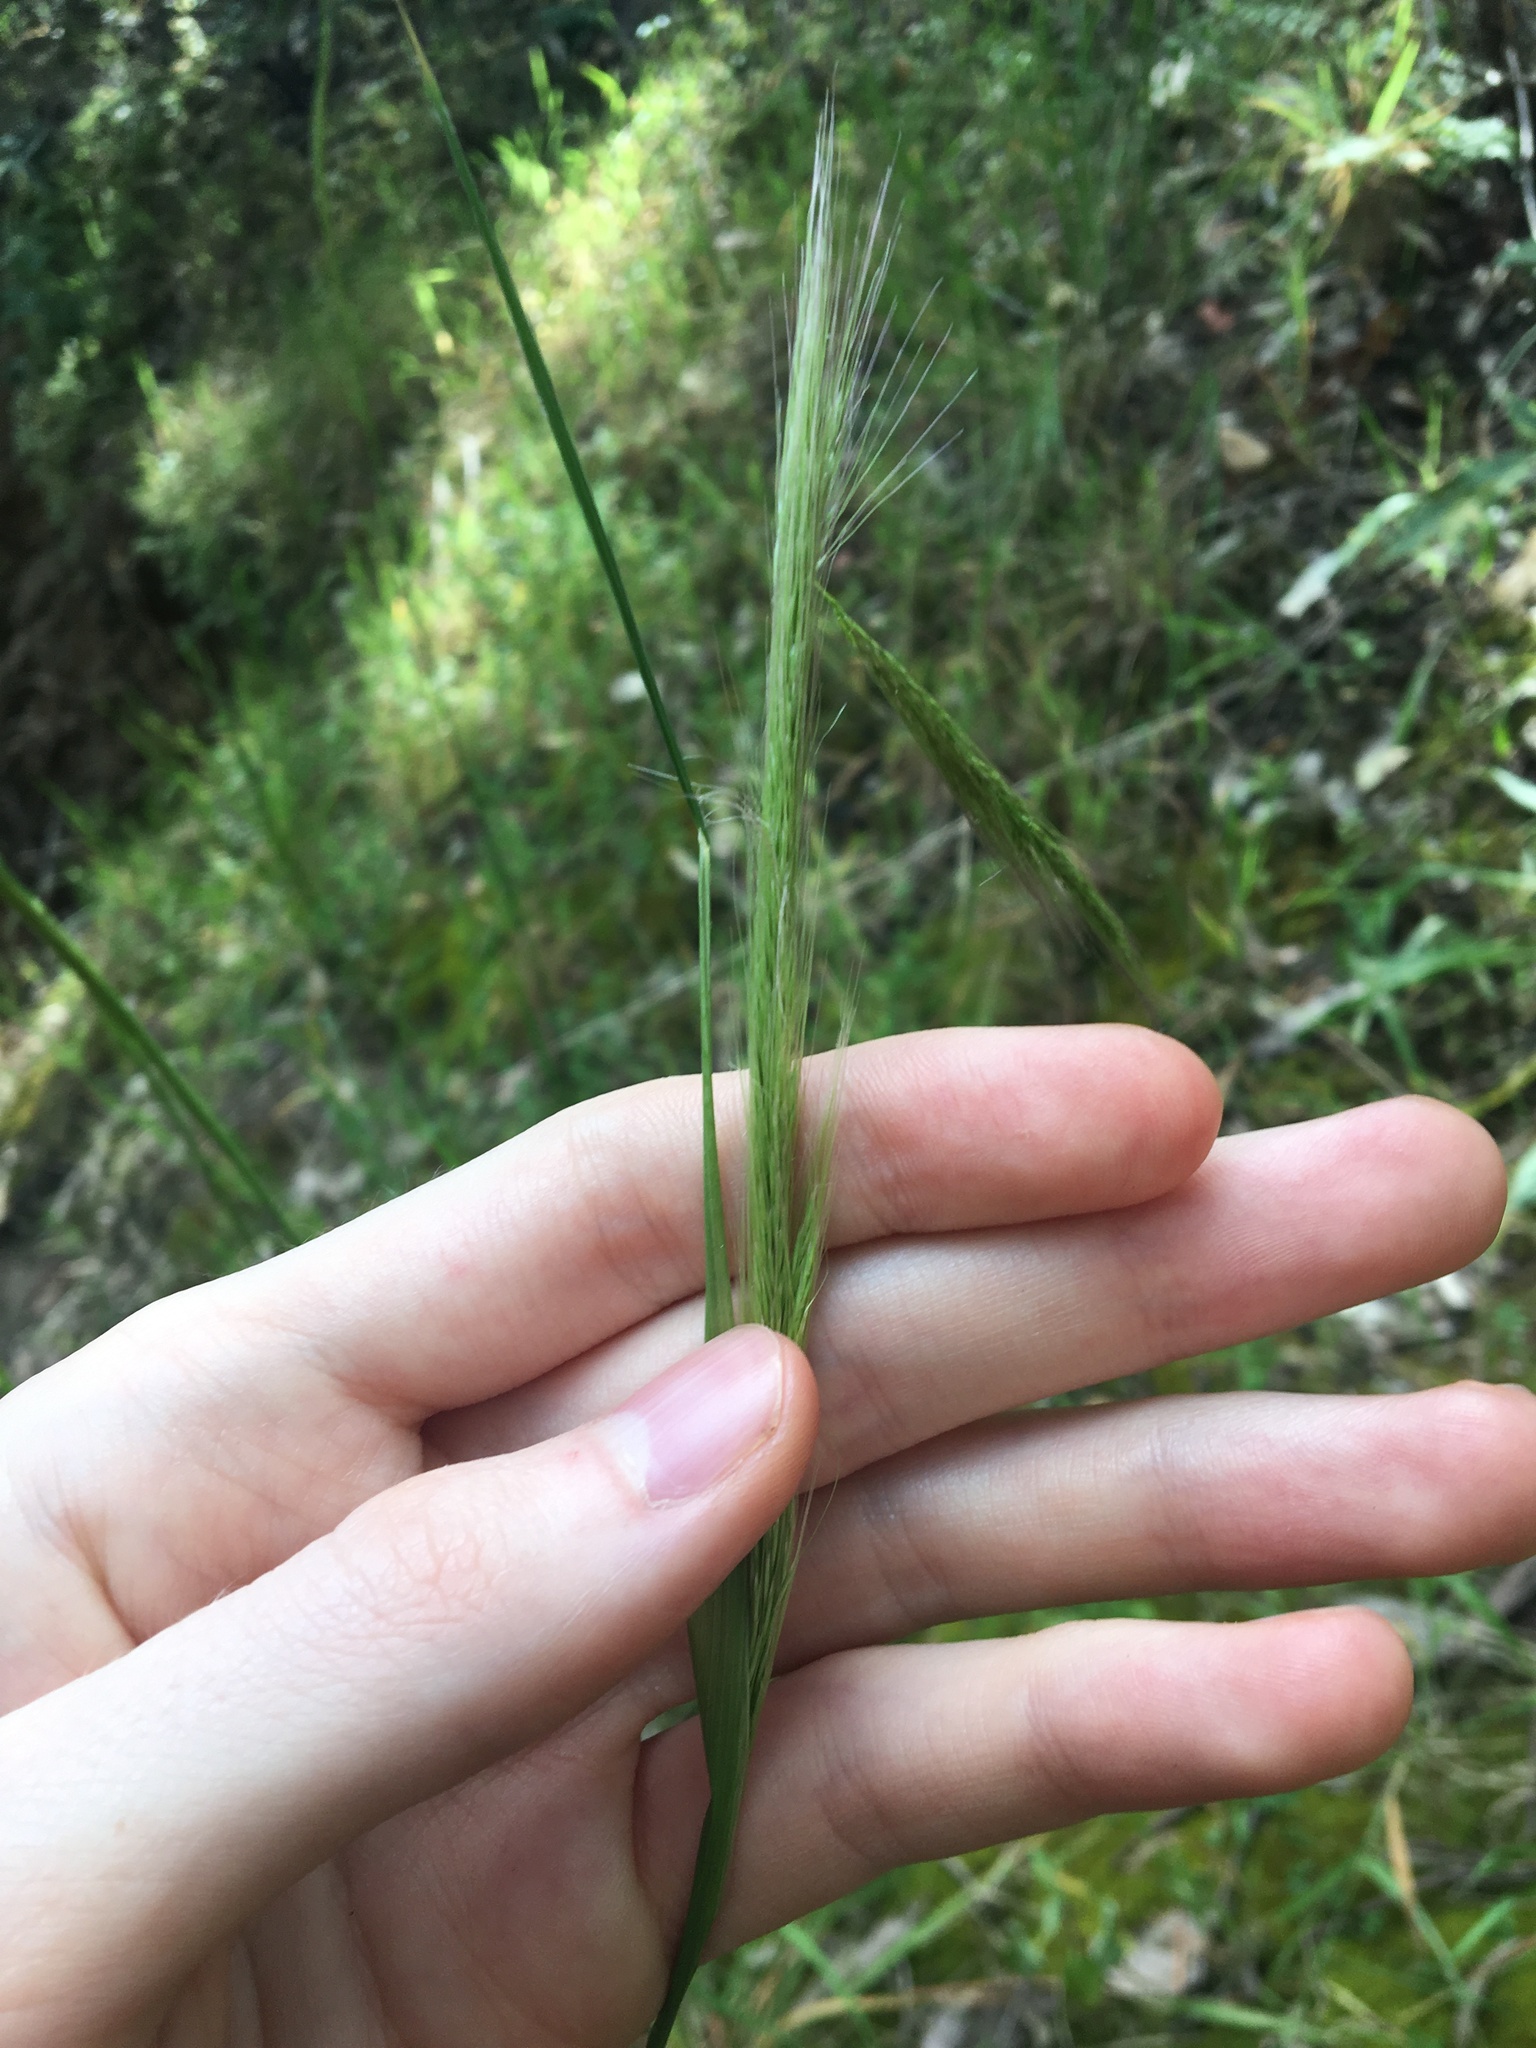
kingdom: Plantae
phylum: Tracheophyta
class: Liliopsida
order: Poales
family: Poaceae
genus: Dichelachne
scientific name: Dichelachne crinita
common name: Clovenfoot plumegrass
